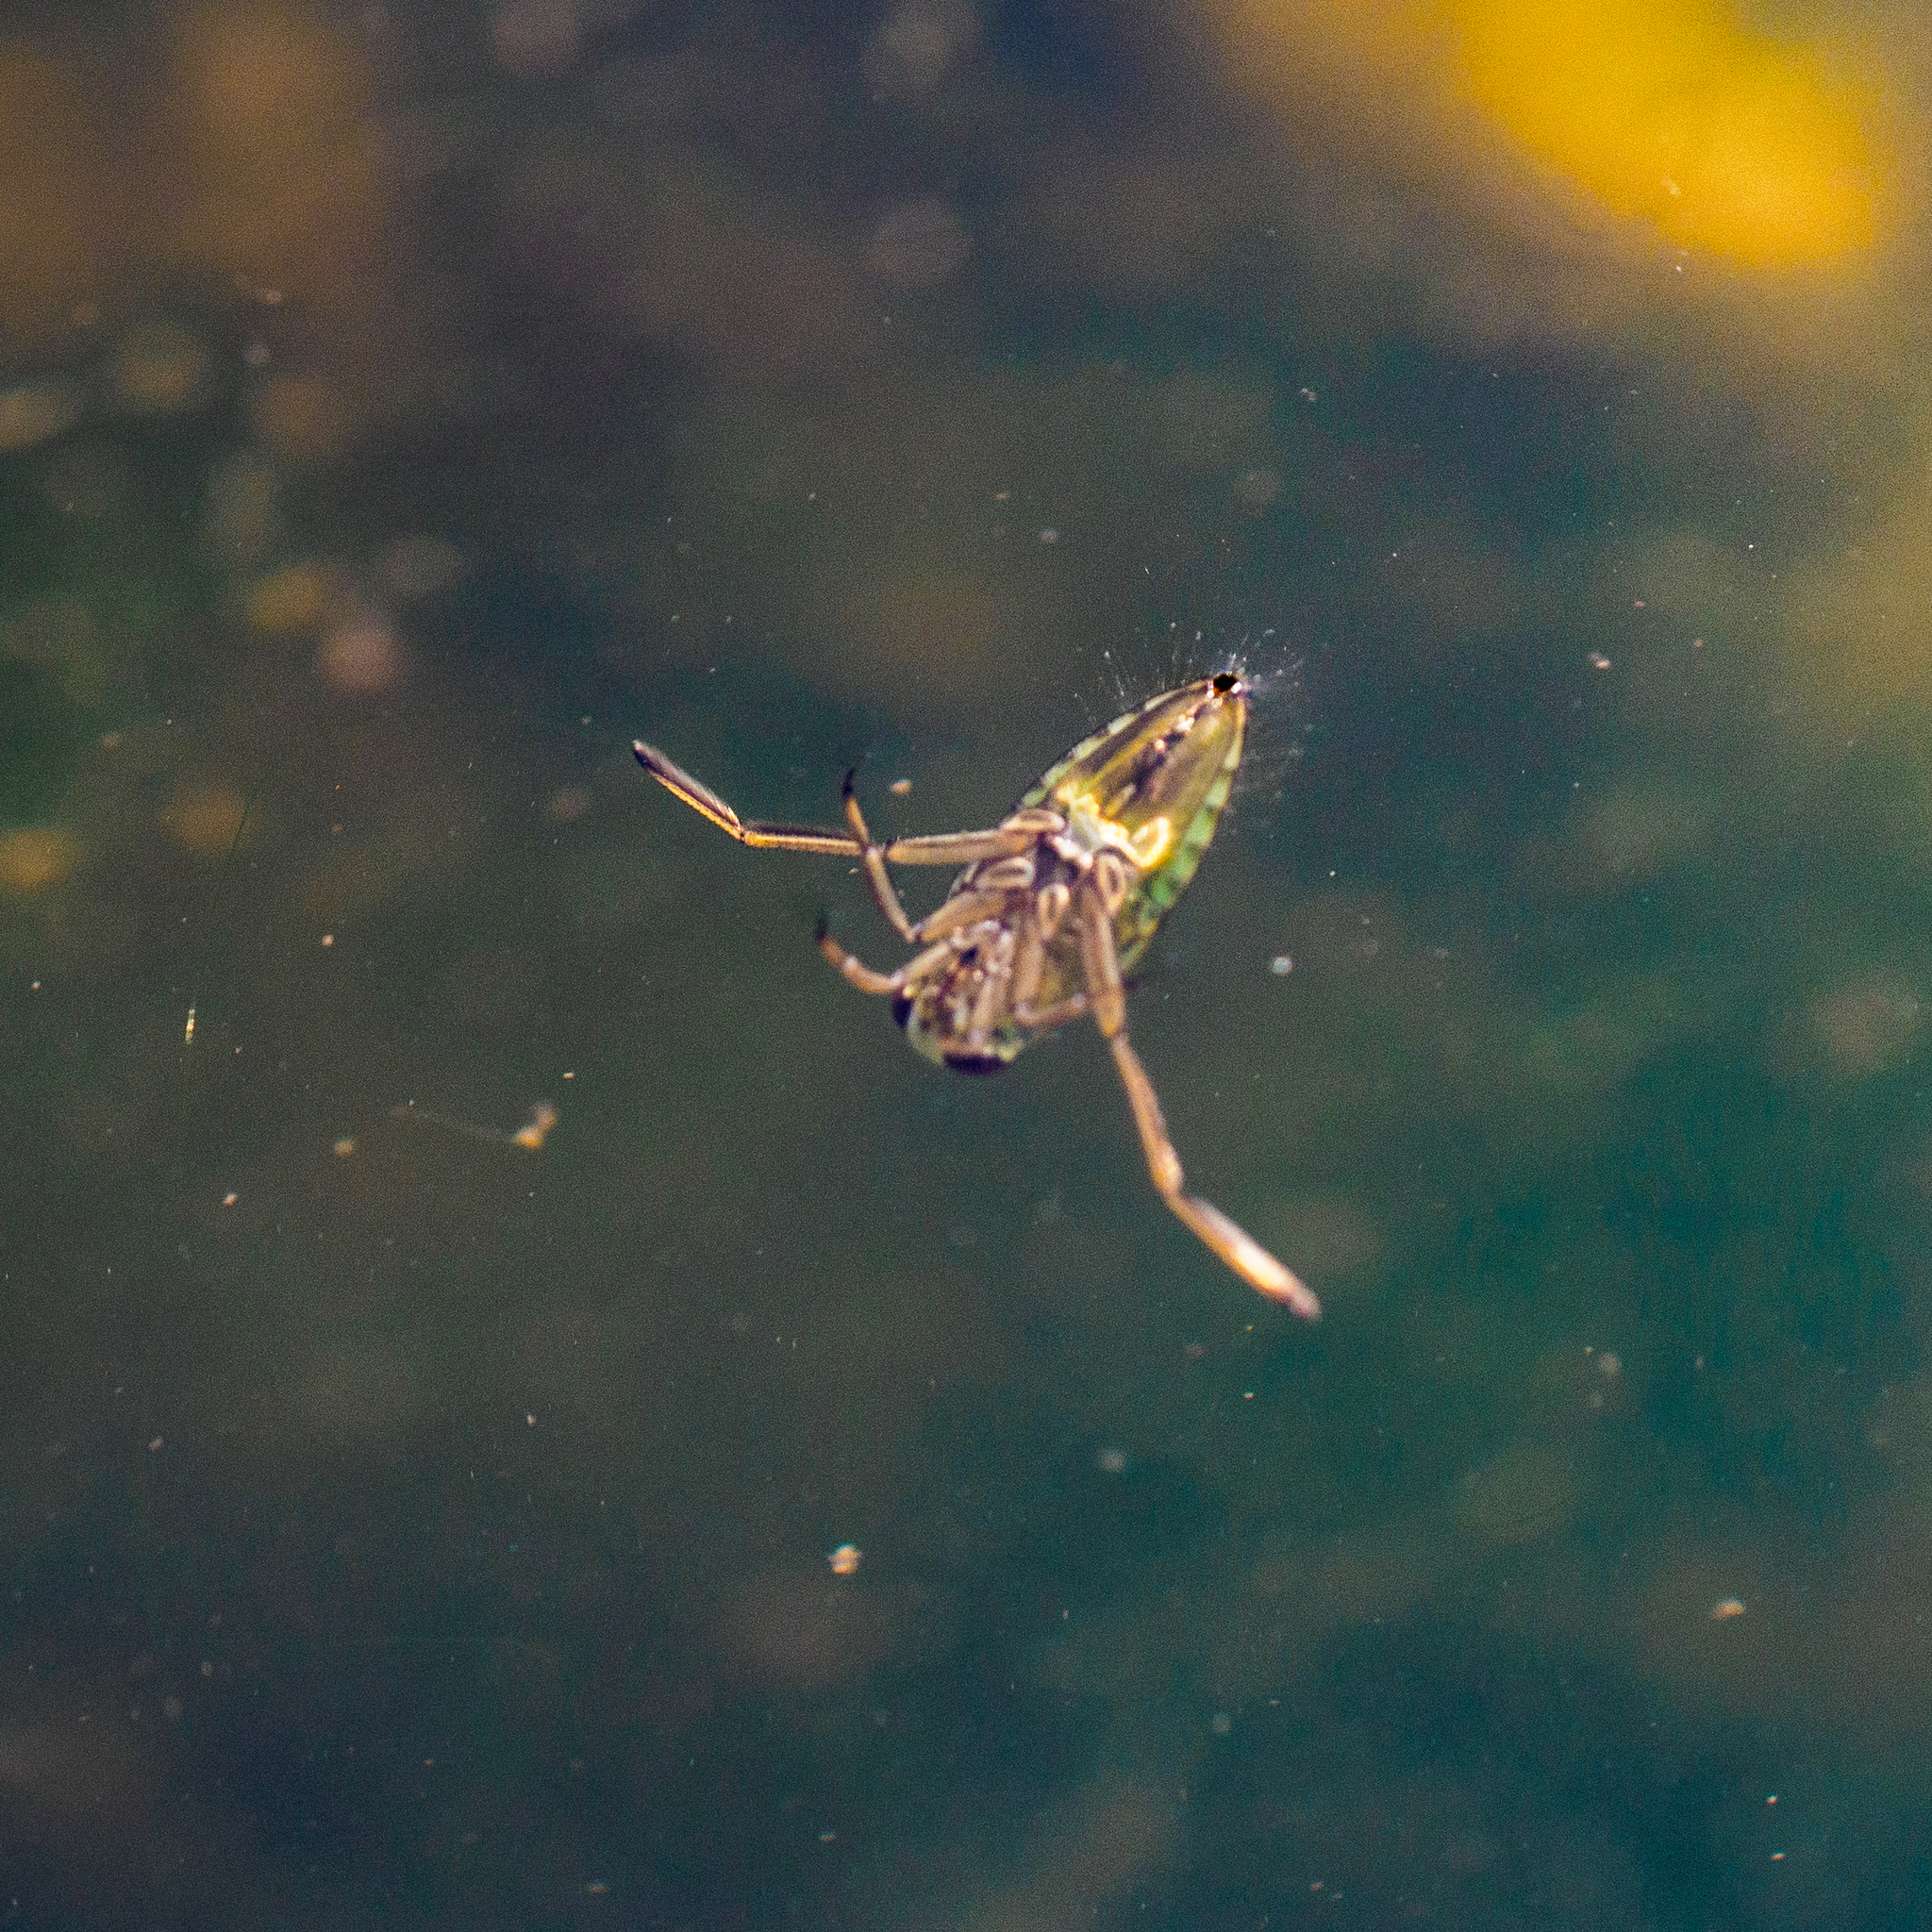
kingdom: Animalia
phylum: Arthropoda
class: Insecta
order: Hemiptera
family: Notonectidae
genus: Notonecta
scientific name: Notonecta
